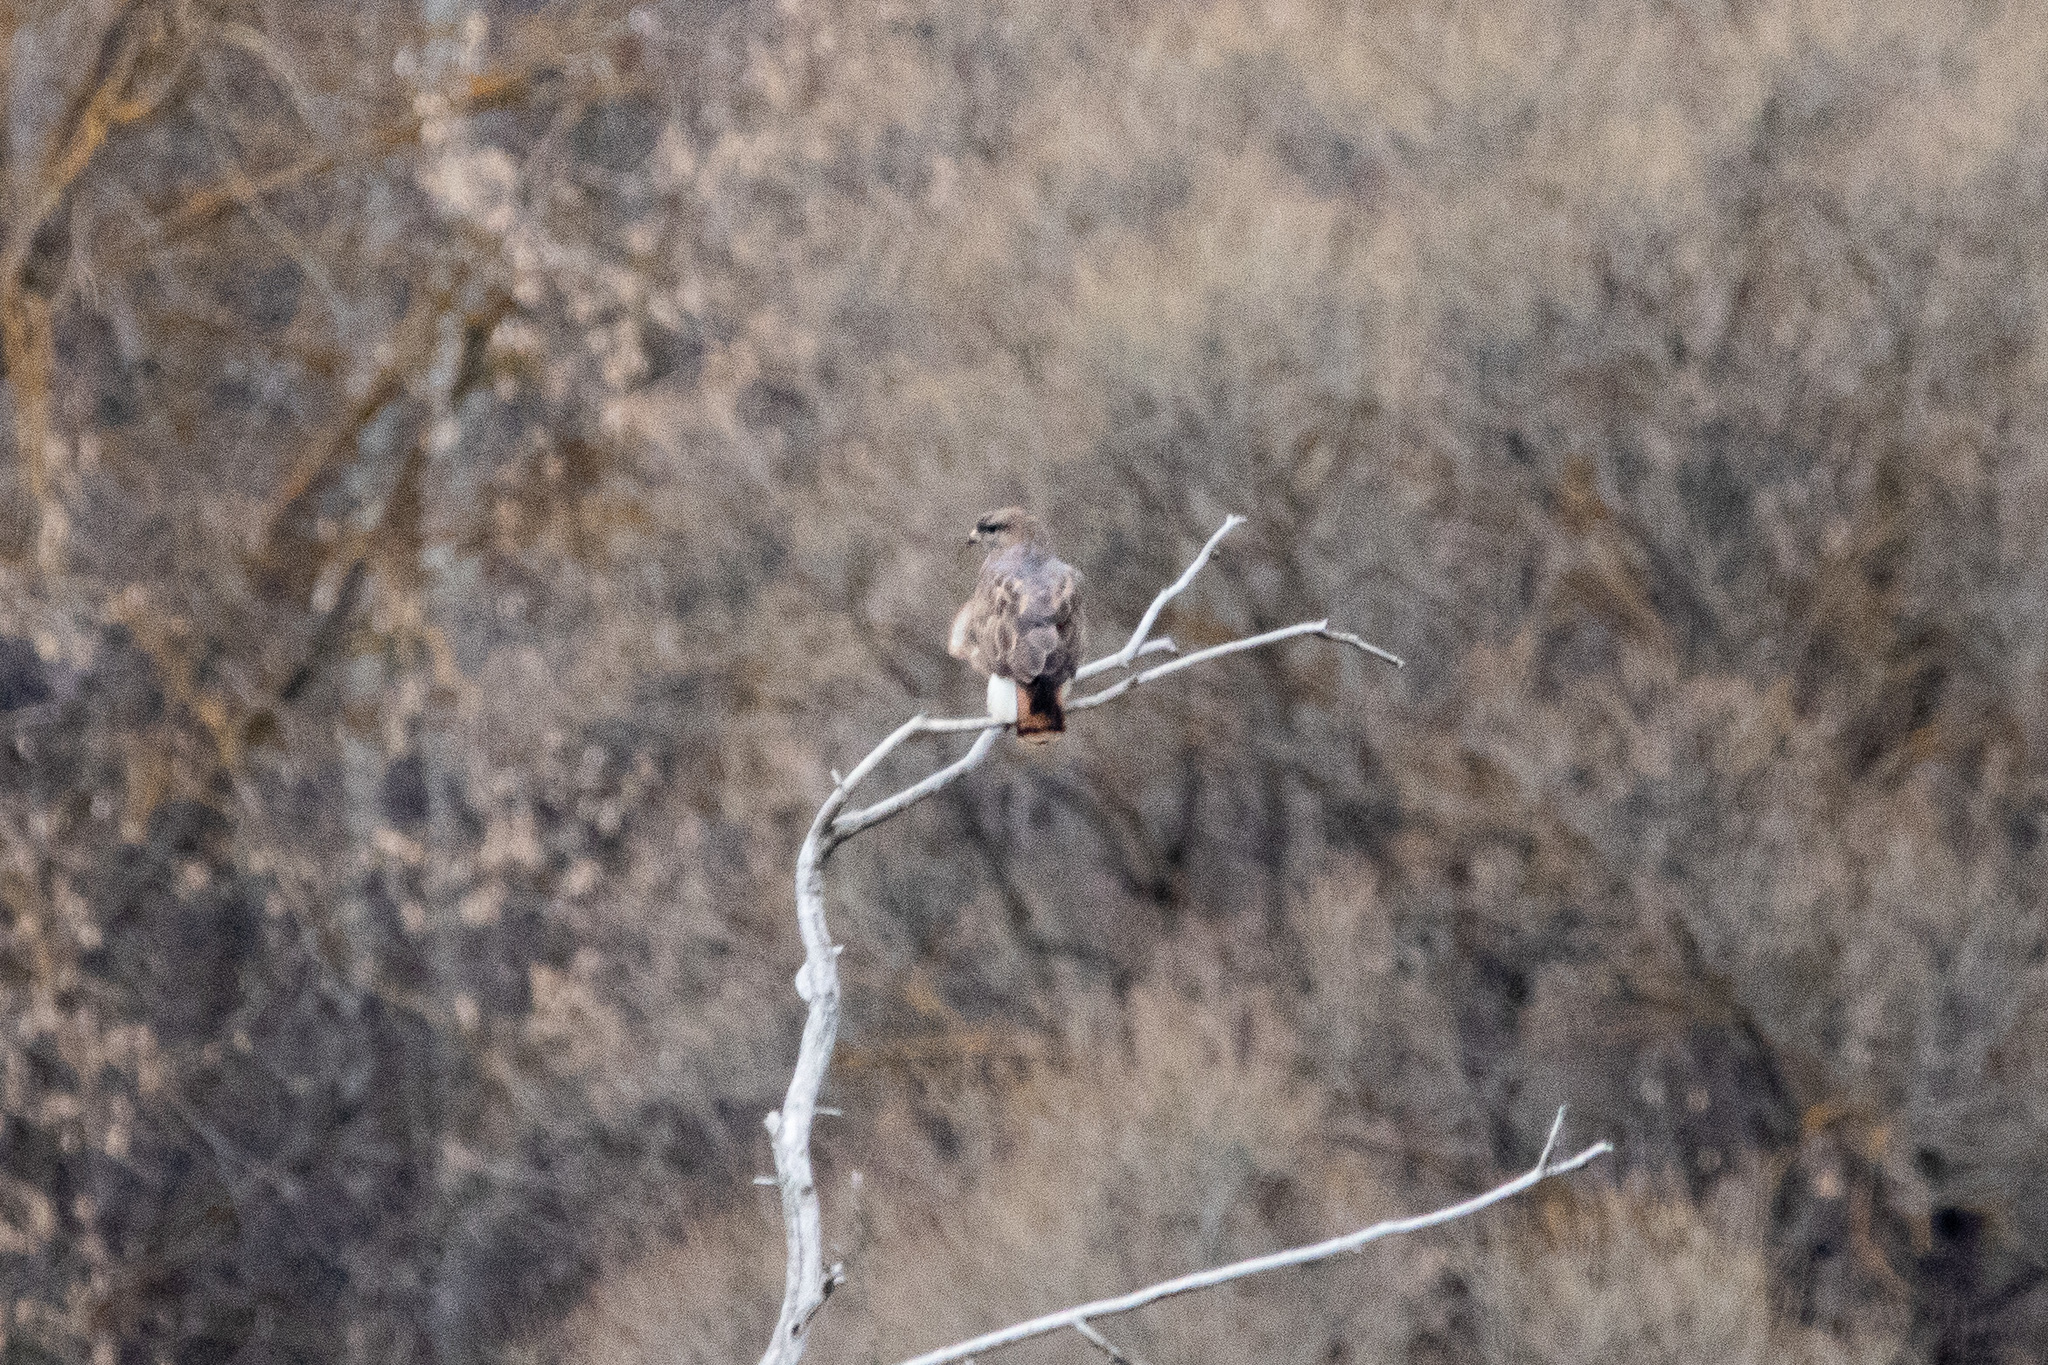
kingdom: Animalia
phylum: Chordata
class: Aves
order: Accipitriformes
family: Accipitridae
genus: Buteo
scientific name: Buteo buteo
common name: Common buzzard
